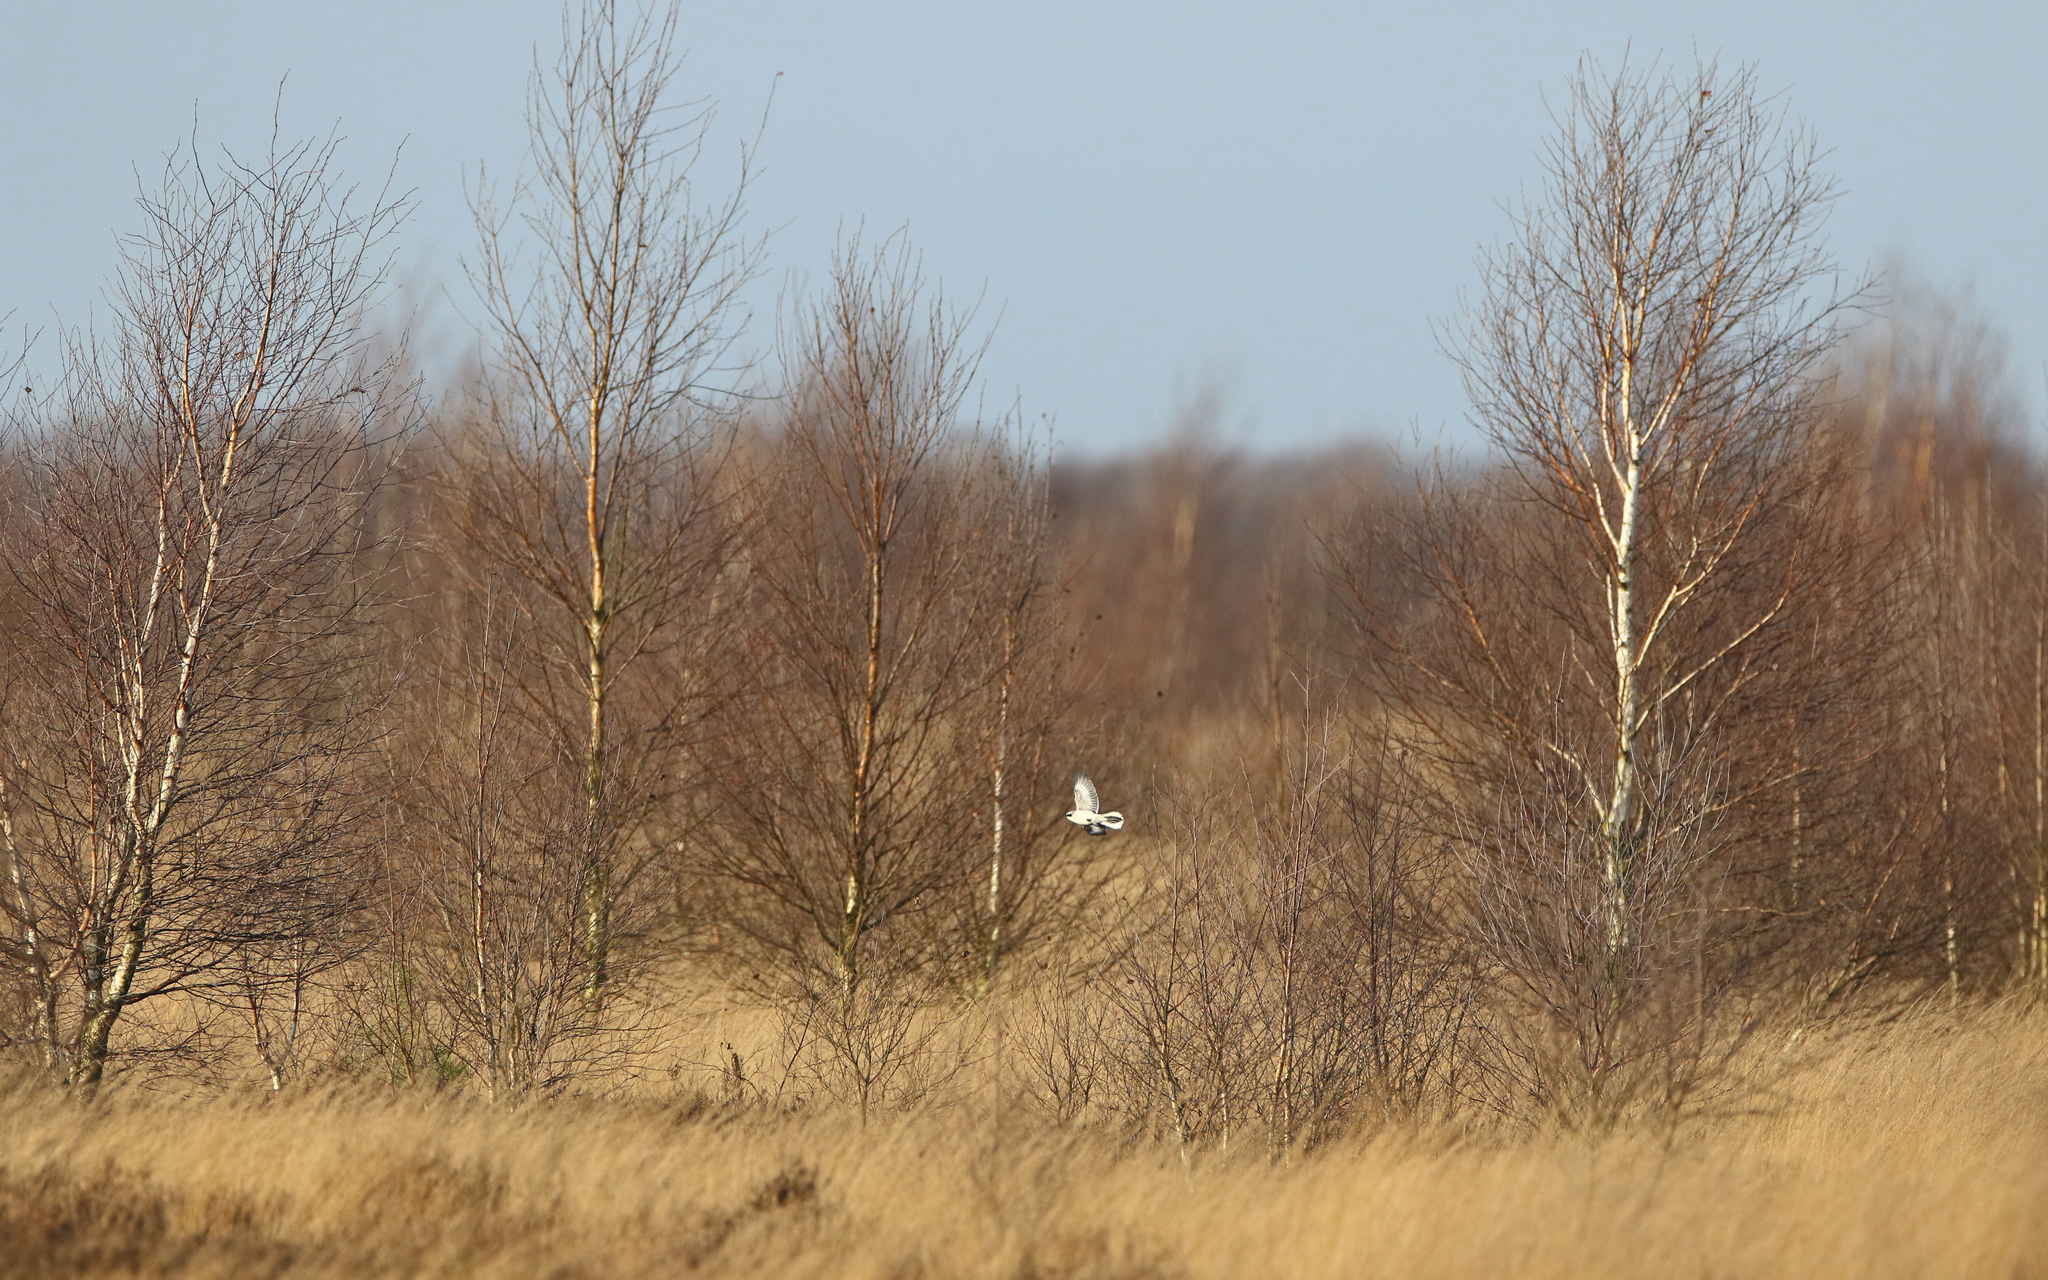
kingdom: Animalia
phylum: Chordata
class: Aves
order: Passeriformes
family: Laniidae
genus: Lanius
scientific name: Lanius excubitor
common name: Great grey shrike
